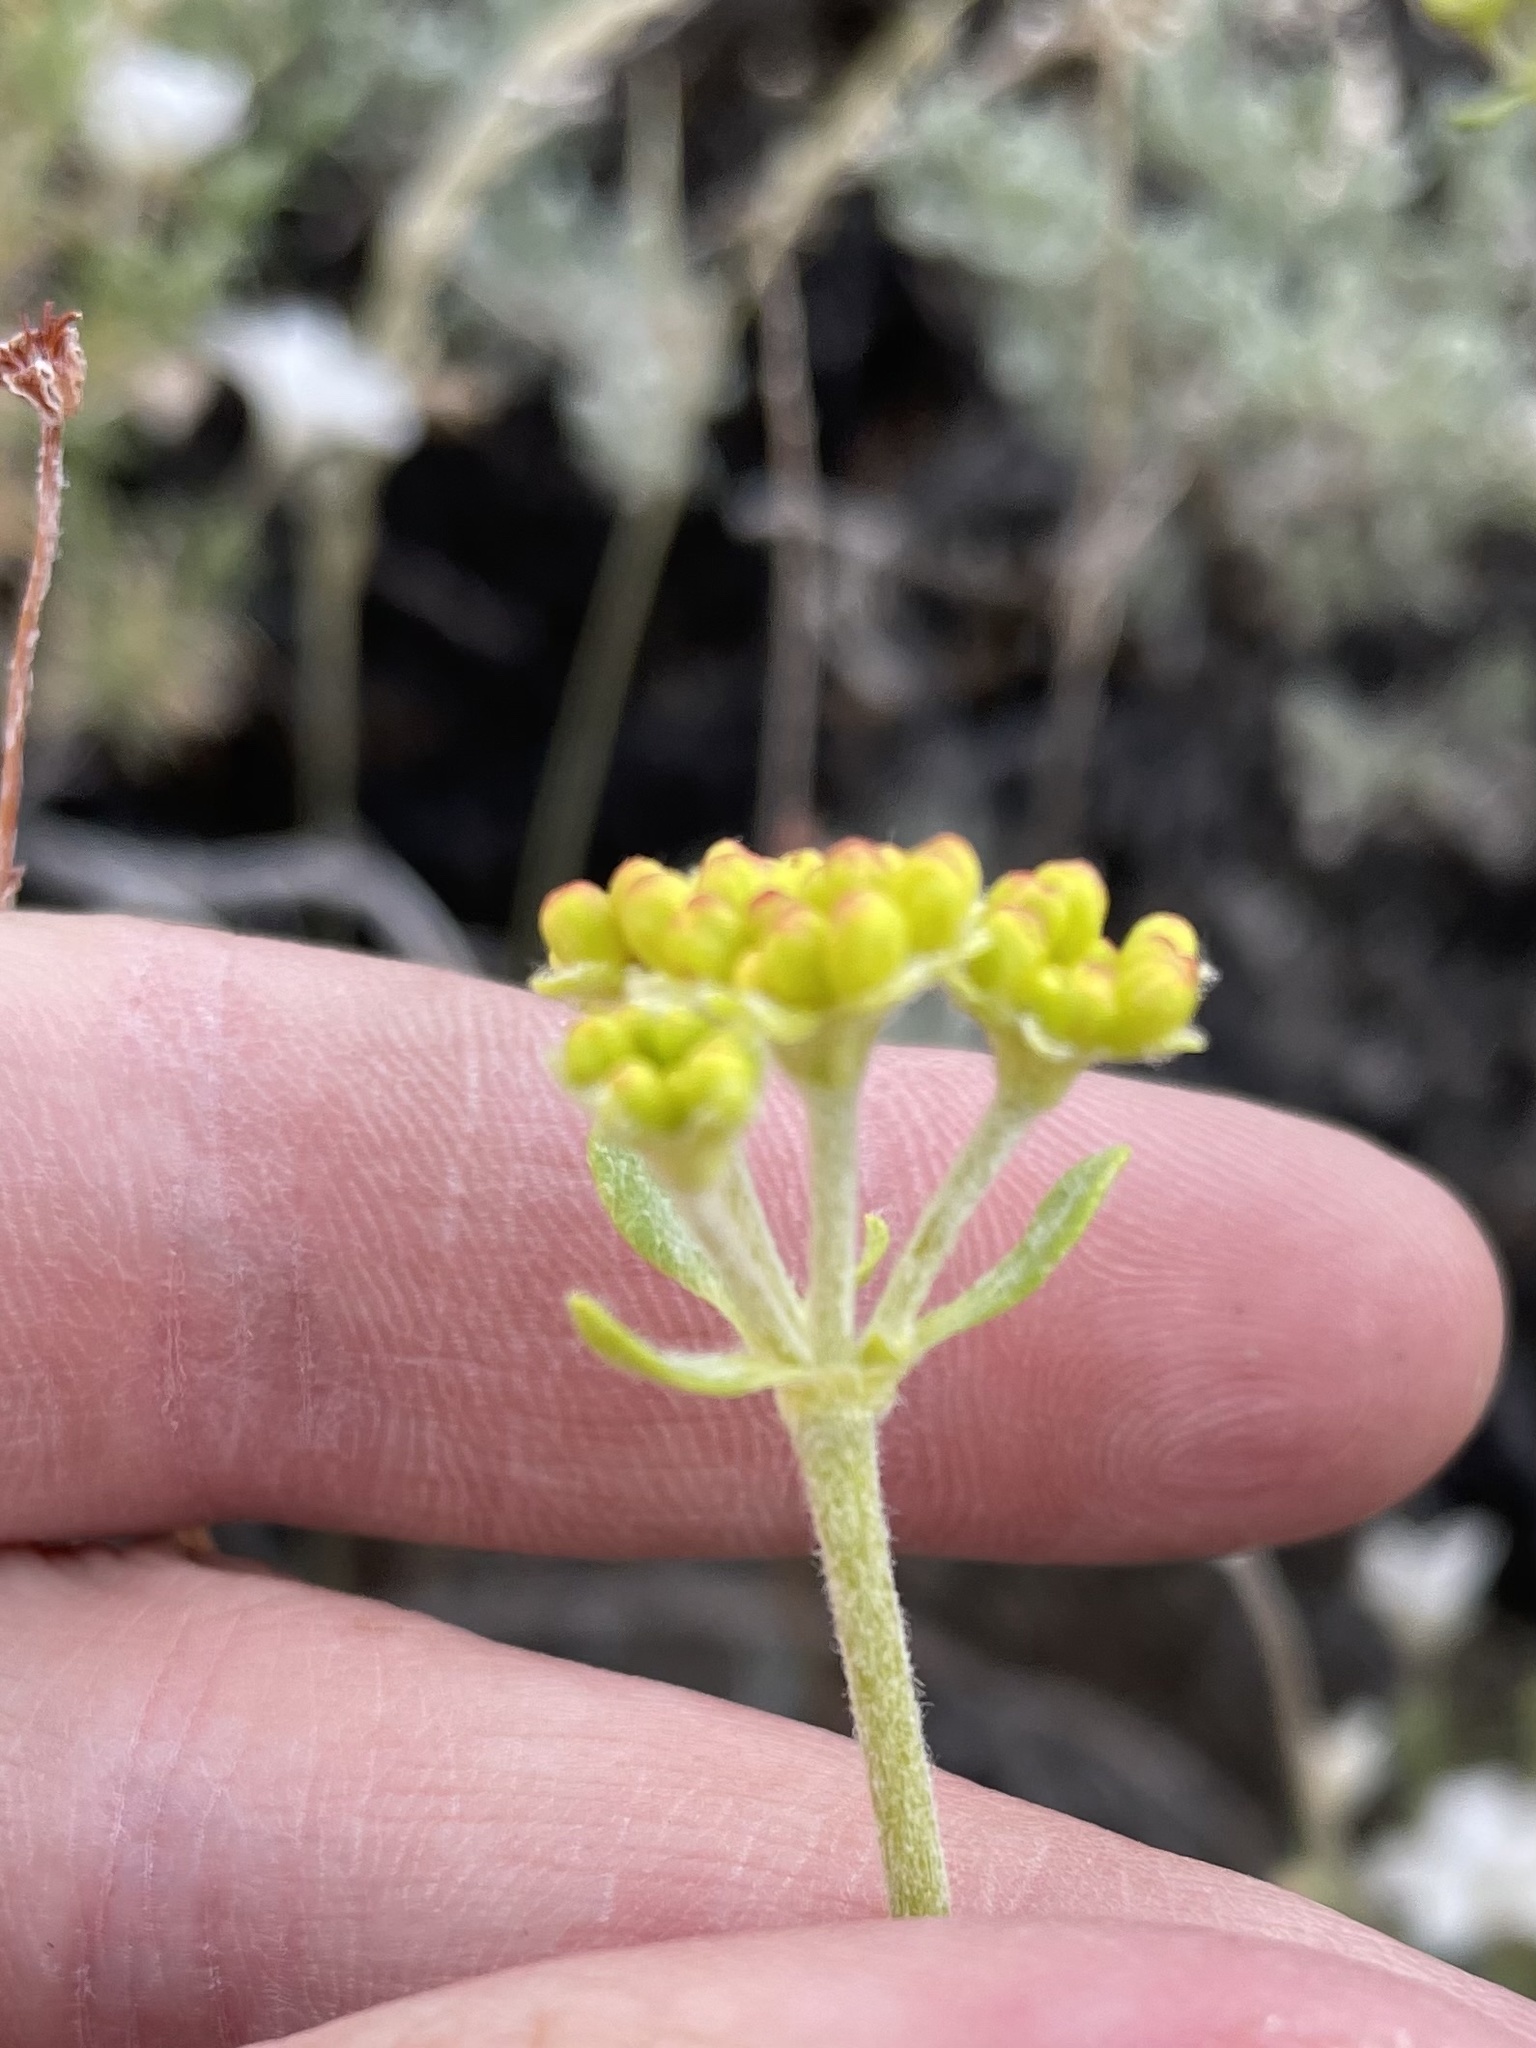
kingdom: Plantae
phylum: Tracheophyta
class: Magnoliopsida
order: Caryophyllales
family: Polygonaceae
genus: Eriogonum
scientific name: Eriogonum umbellatum
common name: Sulfur-buckwheat
